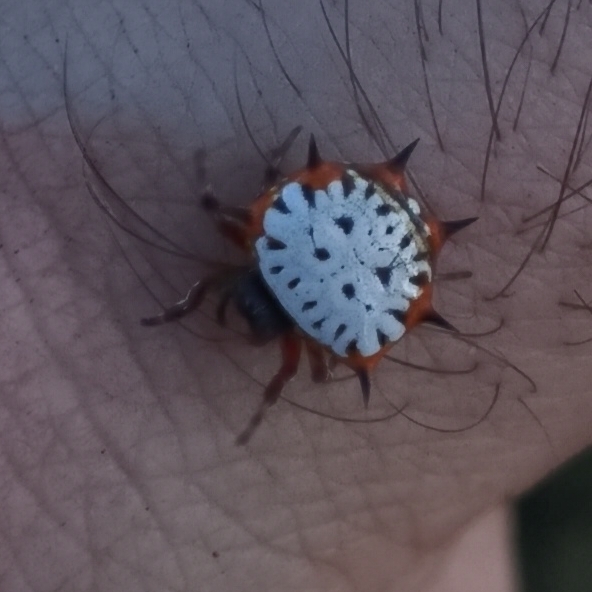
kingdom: Animalia
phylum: Arthropoda
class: Arachnida
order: Araneae
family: Araneidae
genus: Isoxya
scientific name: Isoxya stuhlmanni
